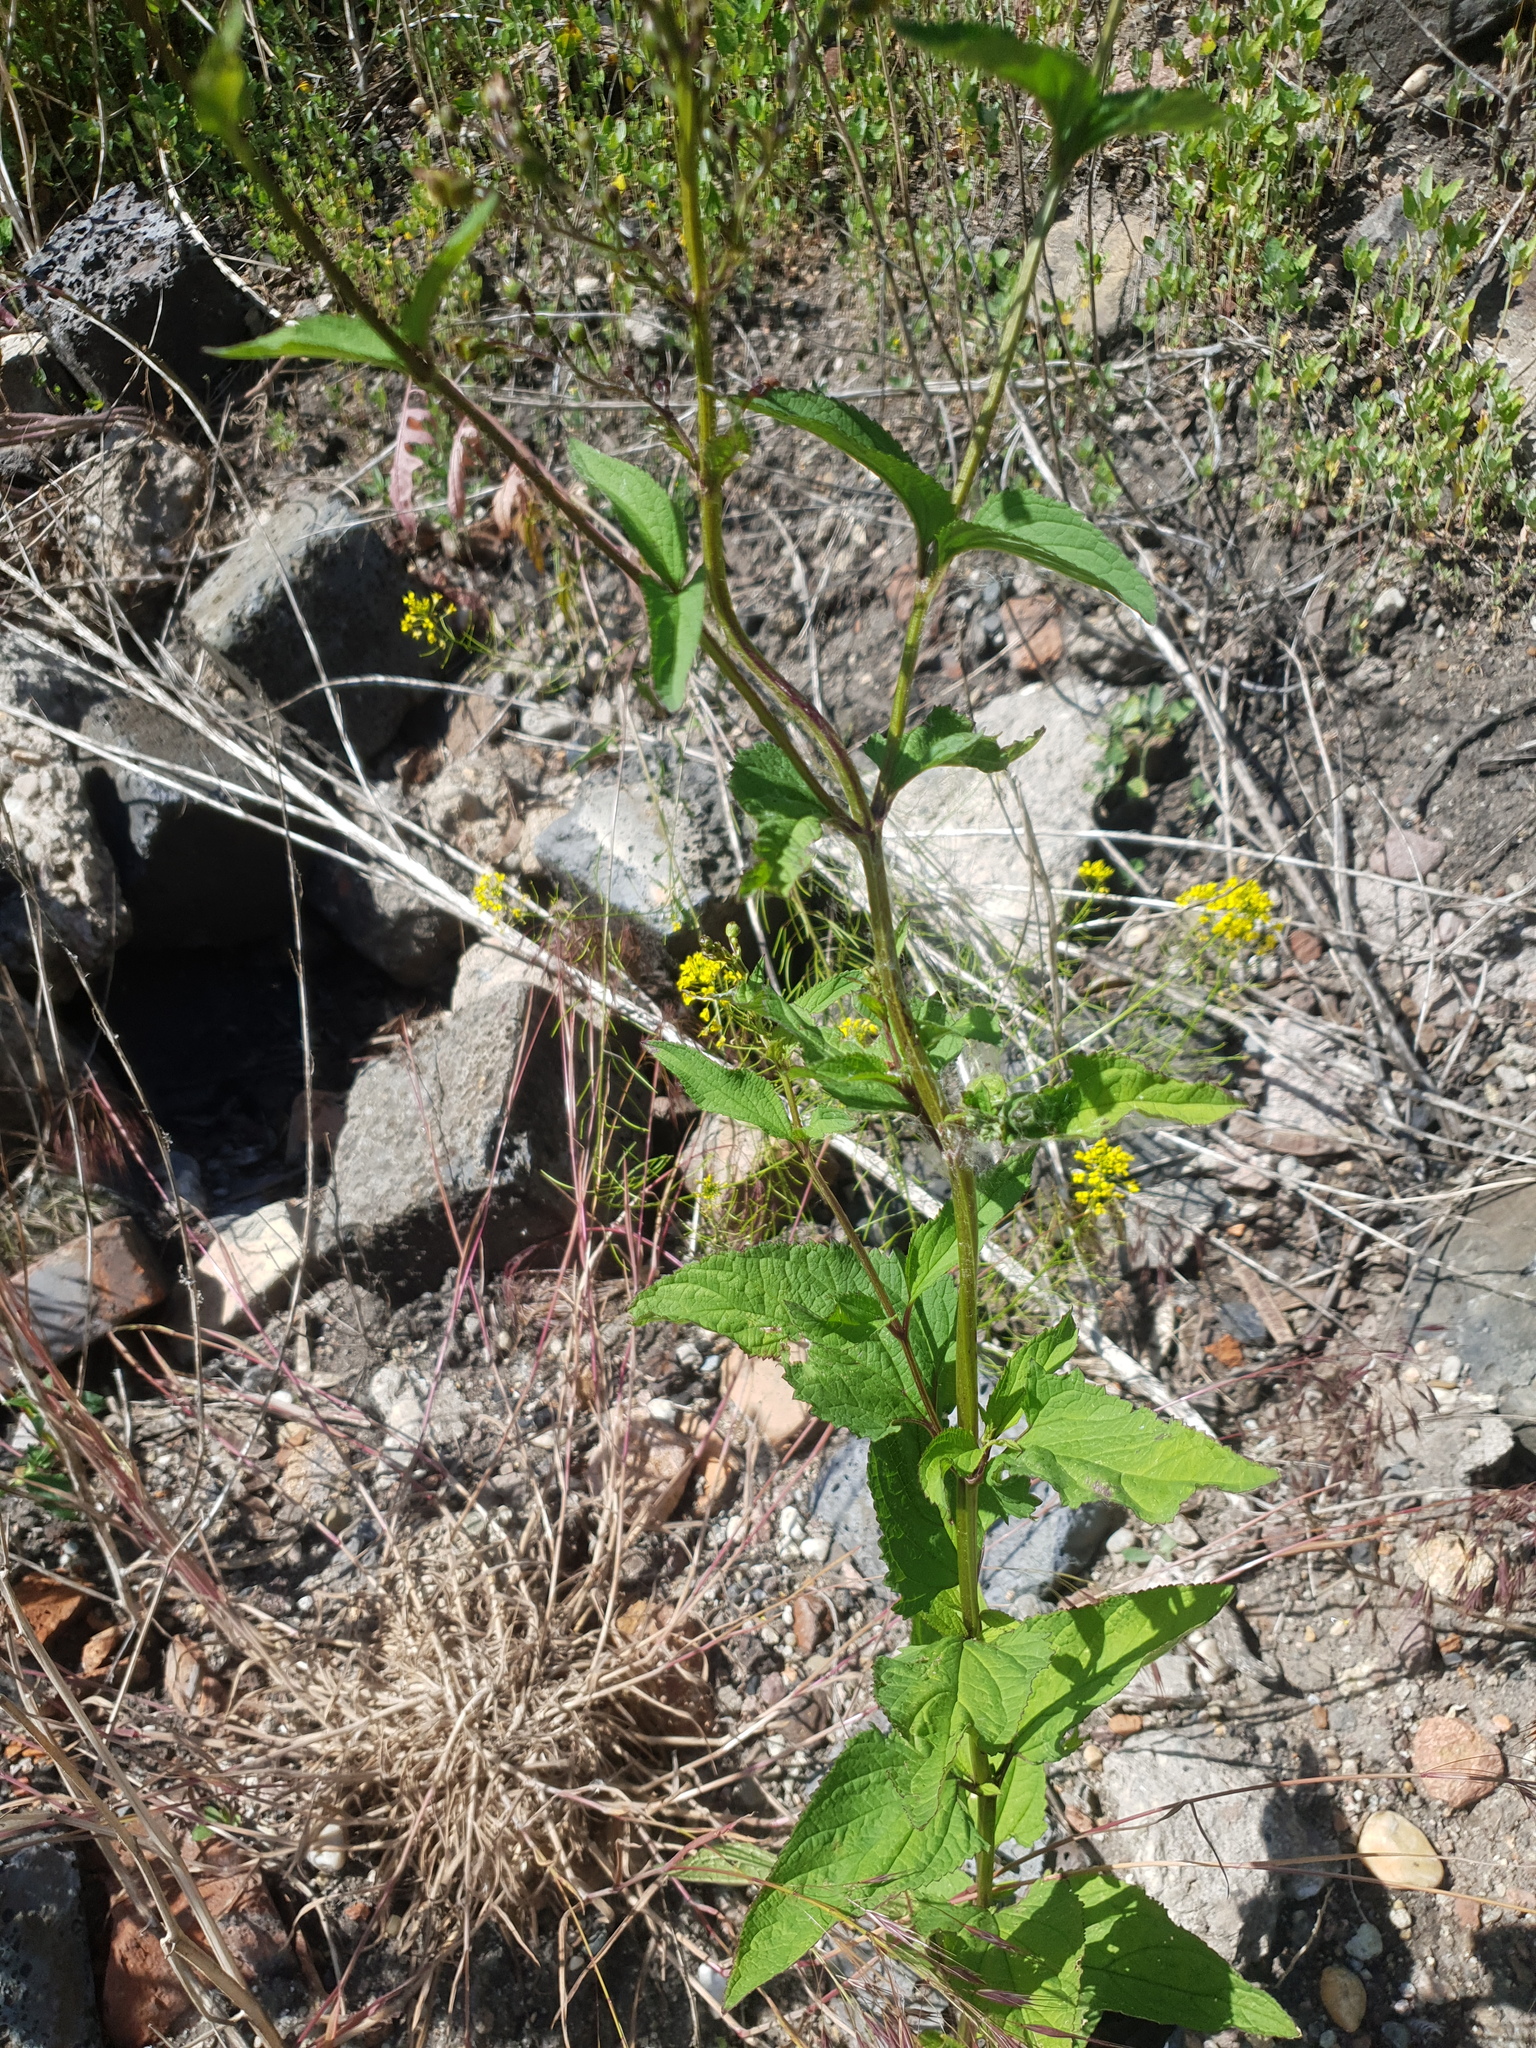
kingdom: Plantae
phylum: Tracheophyta
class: Magnoliopsida
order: Lamiales
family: Scrophulariaceae
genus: Scrophularia
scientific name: Scrophularia nodosa
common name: Common figwort
